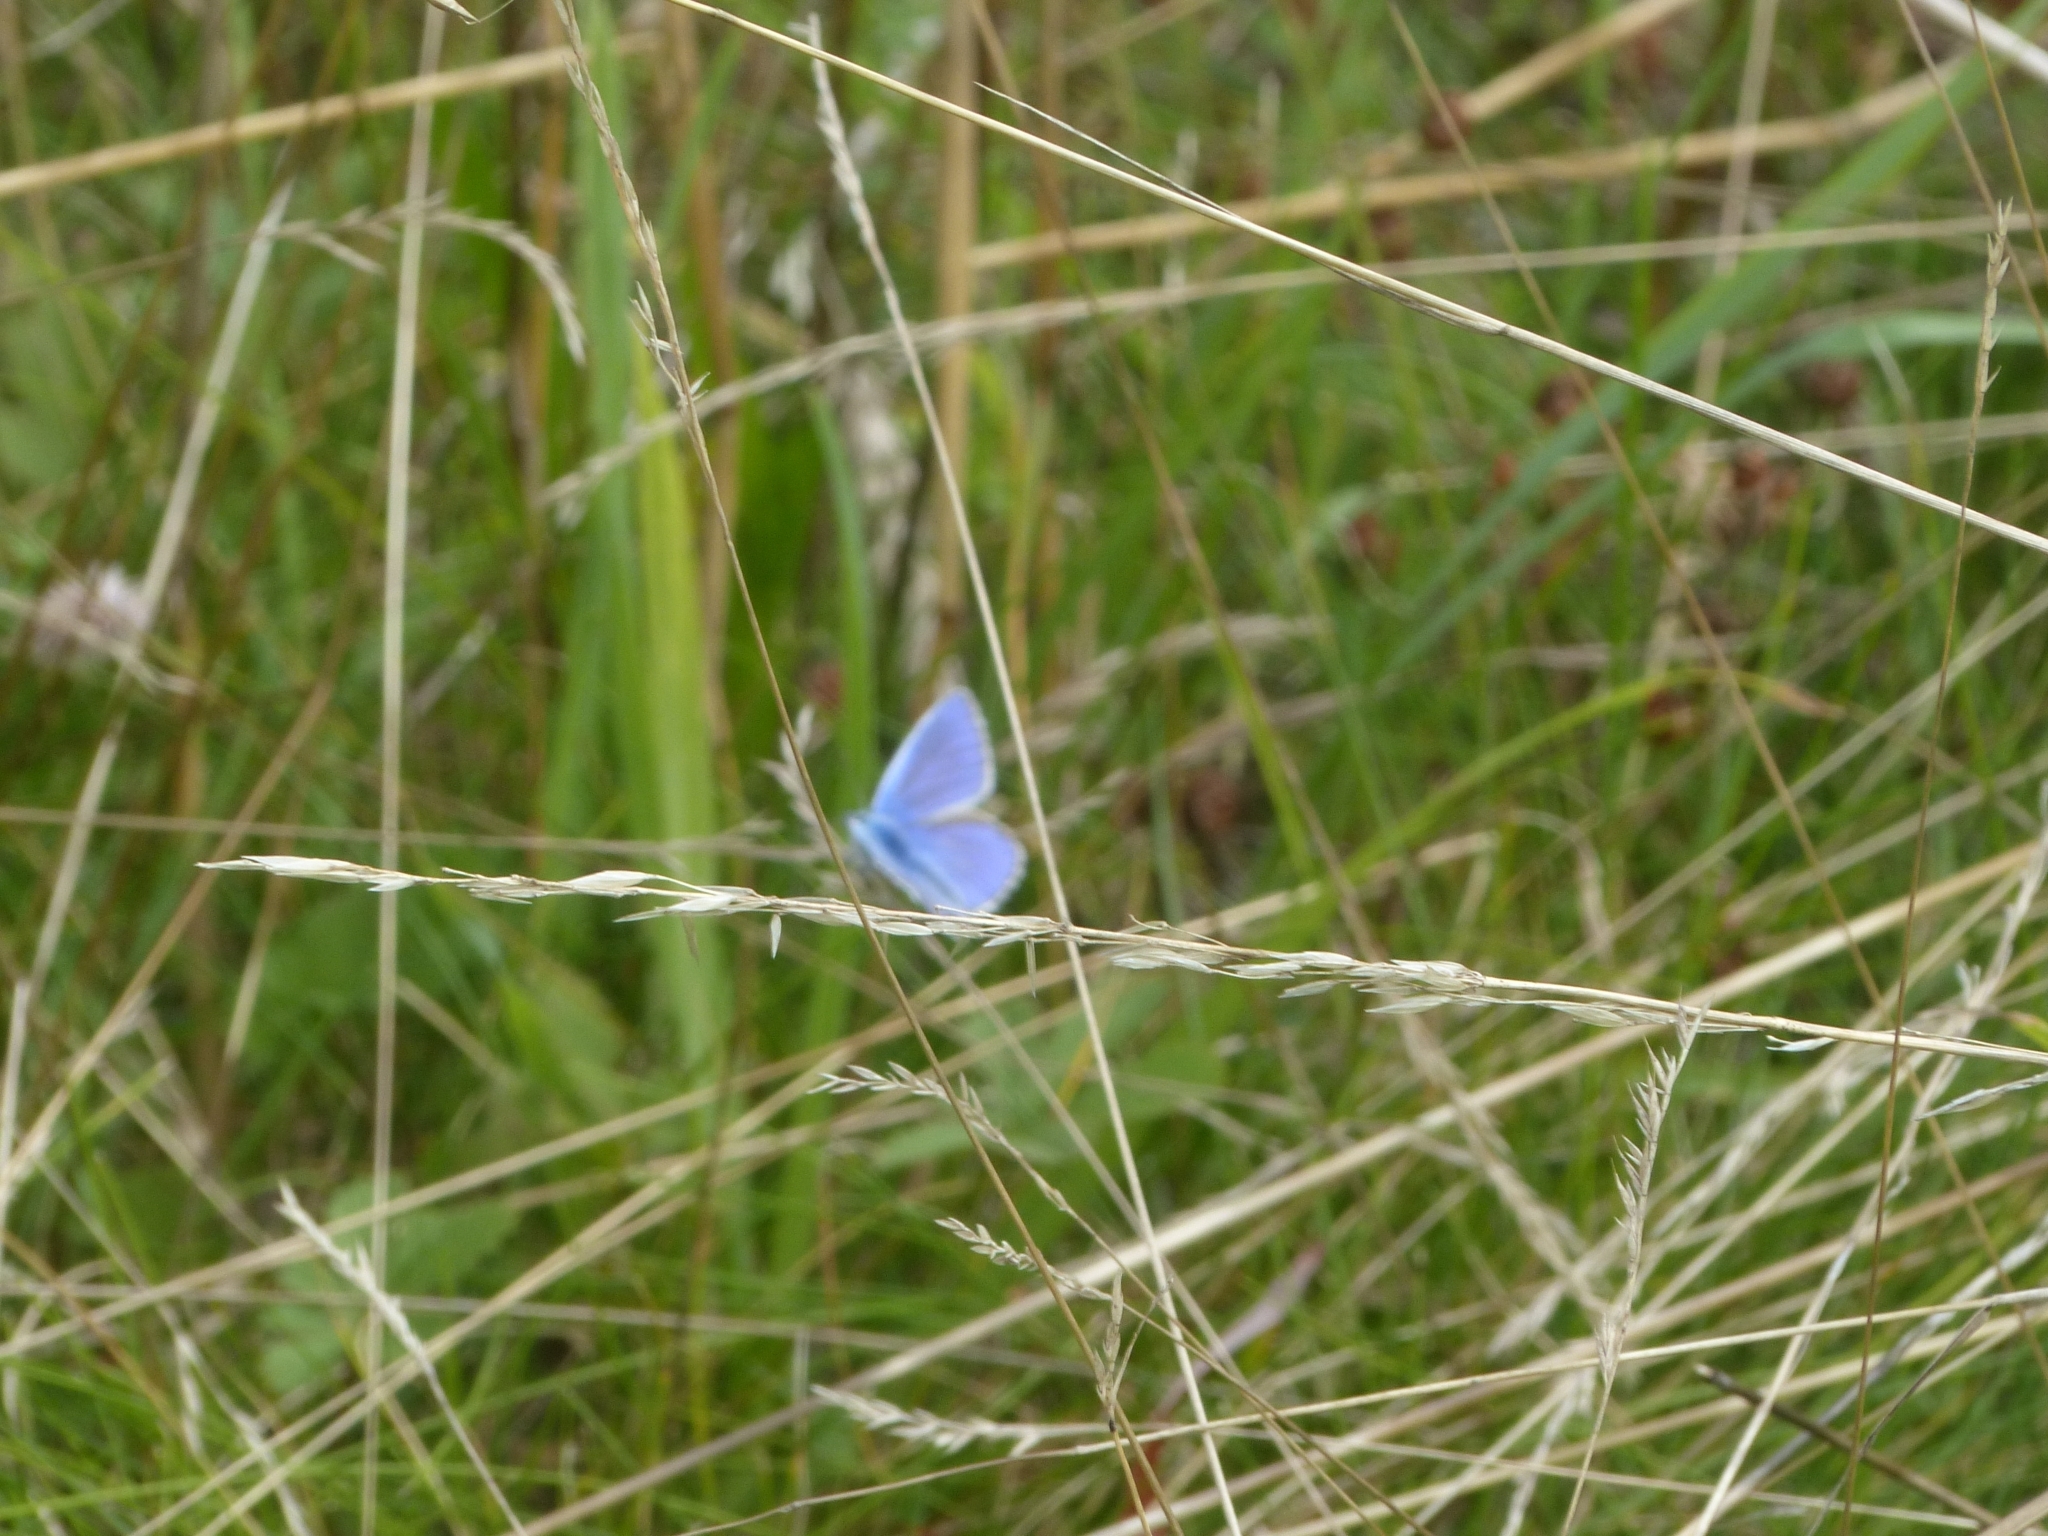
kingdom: Animalia
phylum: Arthropoda
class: Insecta
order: Lepidoptera
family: Lycaenidae
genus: Polyommatus
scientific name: Polyommatus icarus
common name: Common blue
